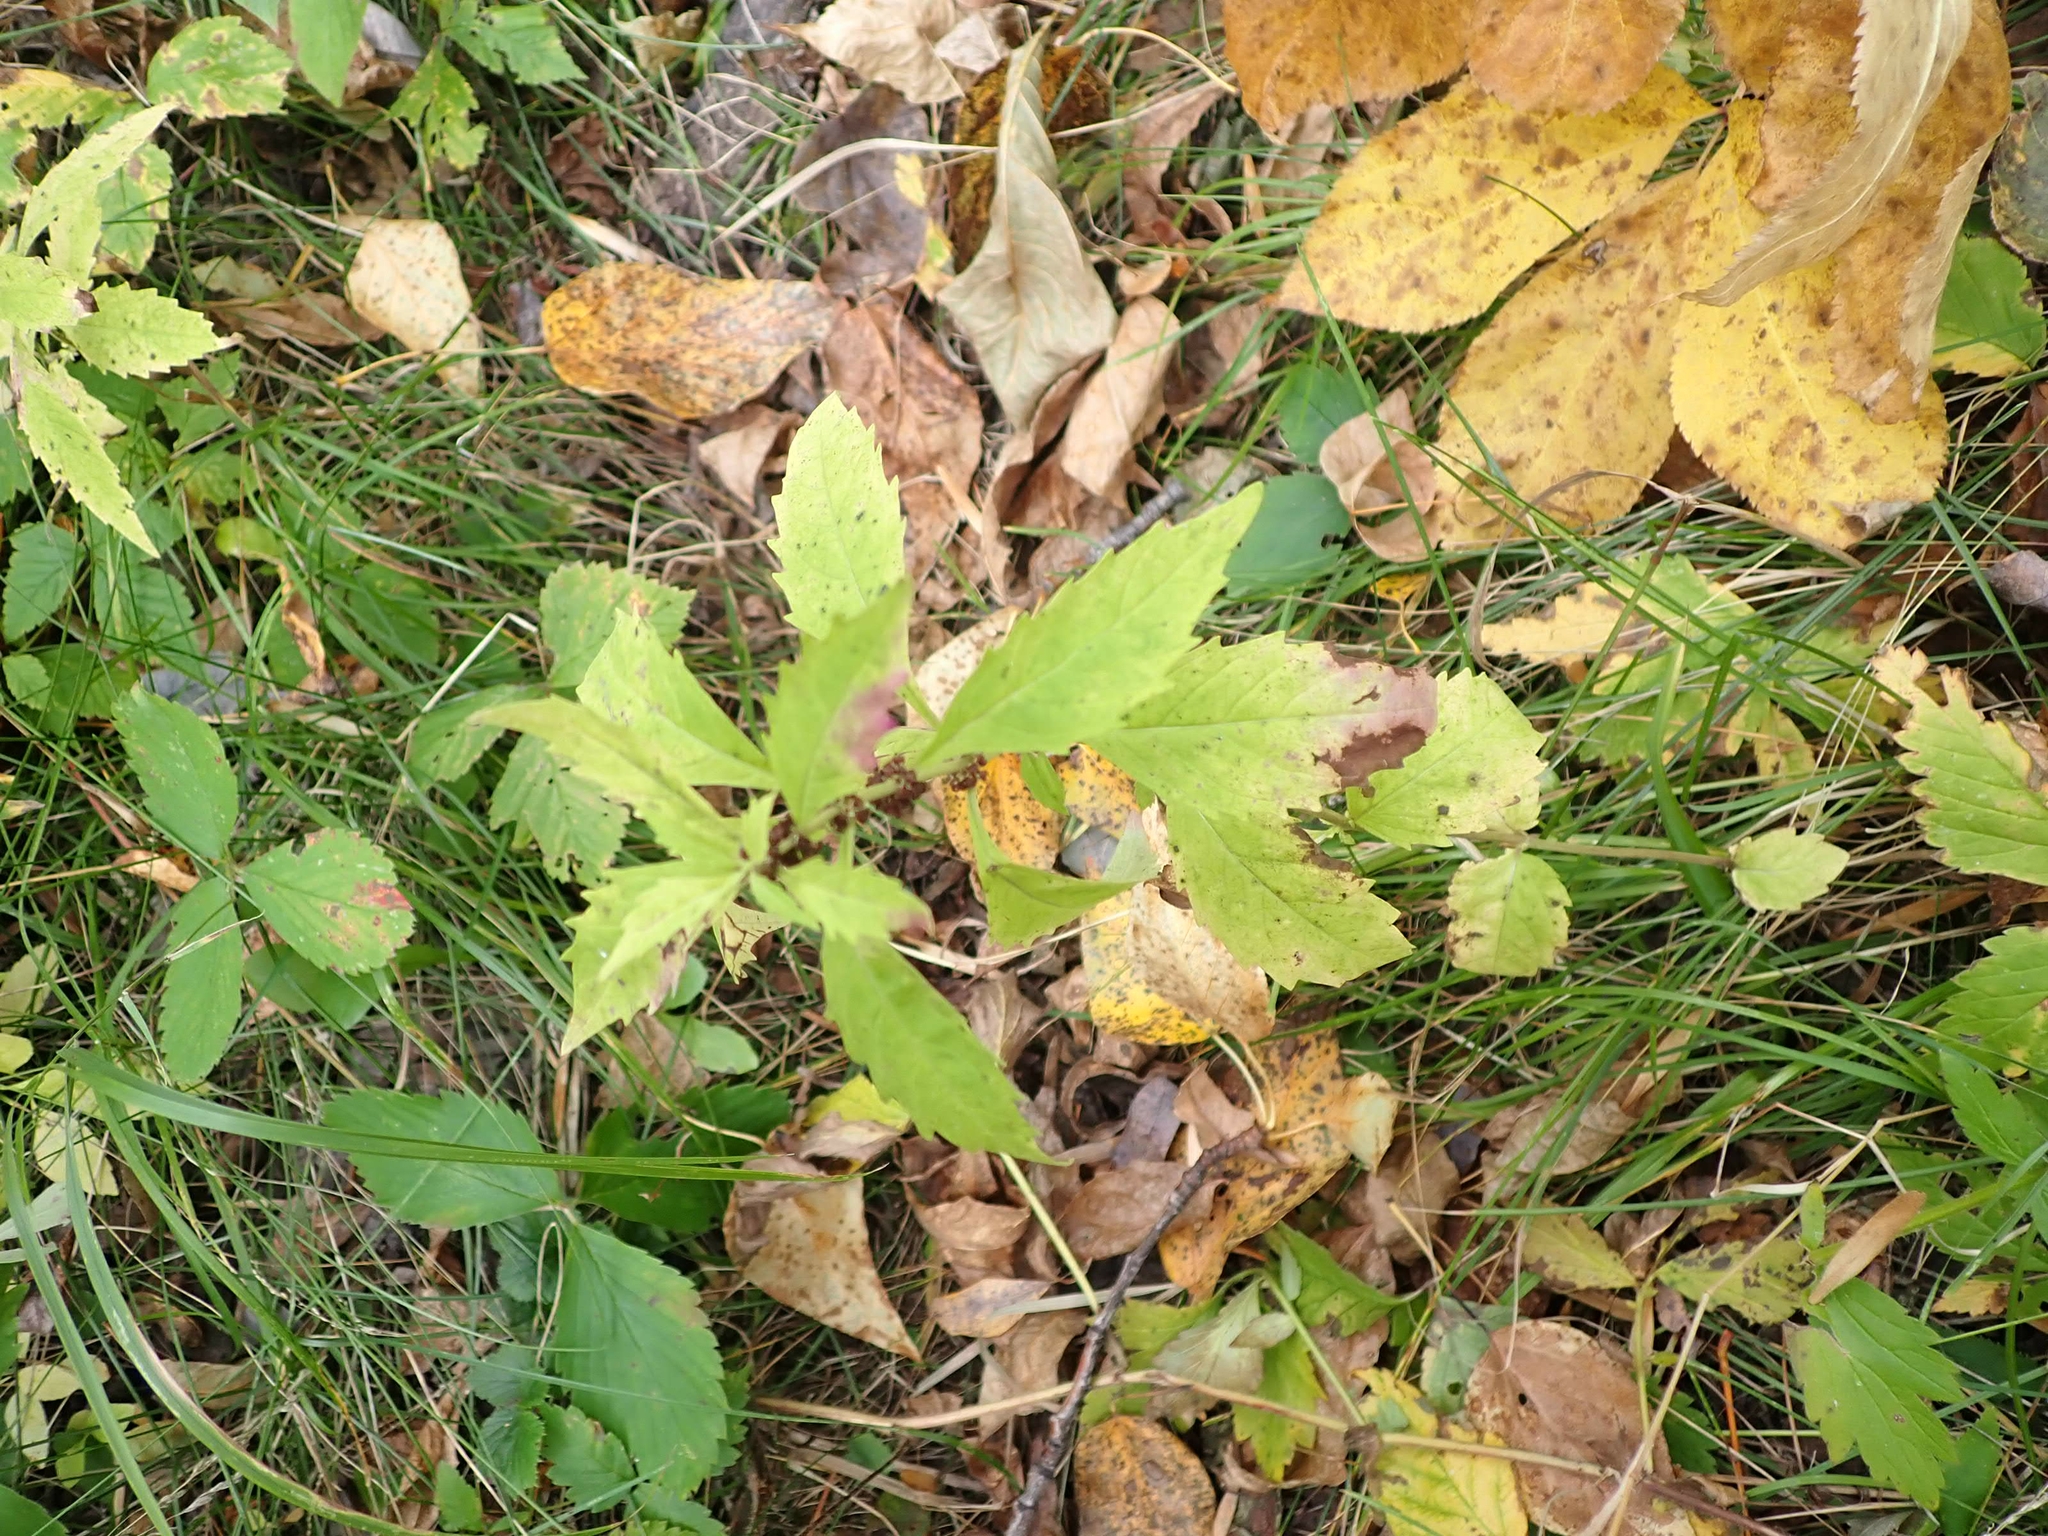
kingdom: Plantae
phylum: Tracheophyta
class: Magnoliopsida
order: Lamiales
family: Lamiaceae
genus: Lycopus
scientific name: Lycopus uniflorus
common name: Northern bugleweed
